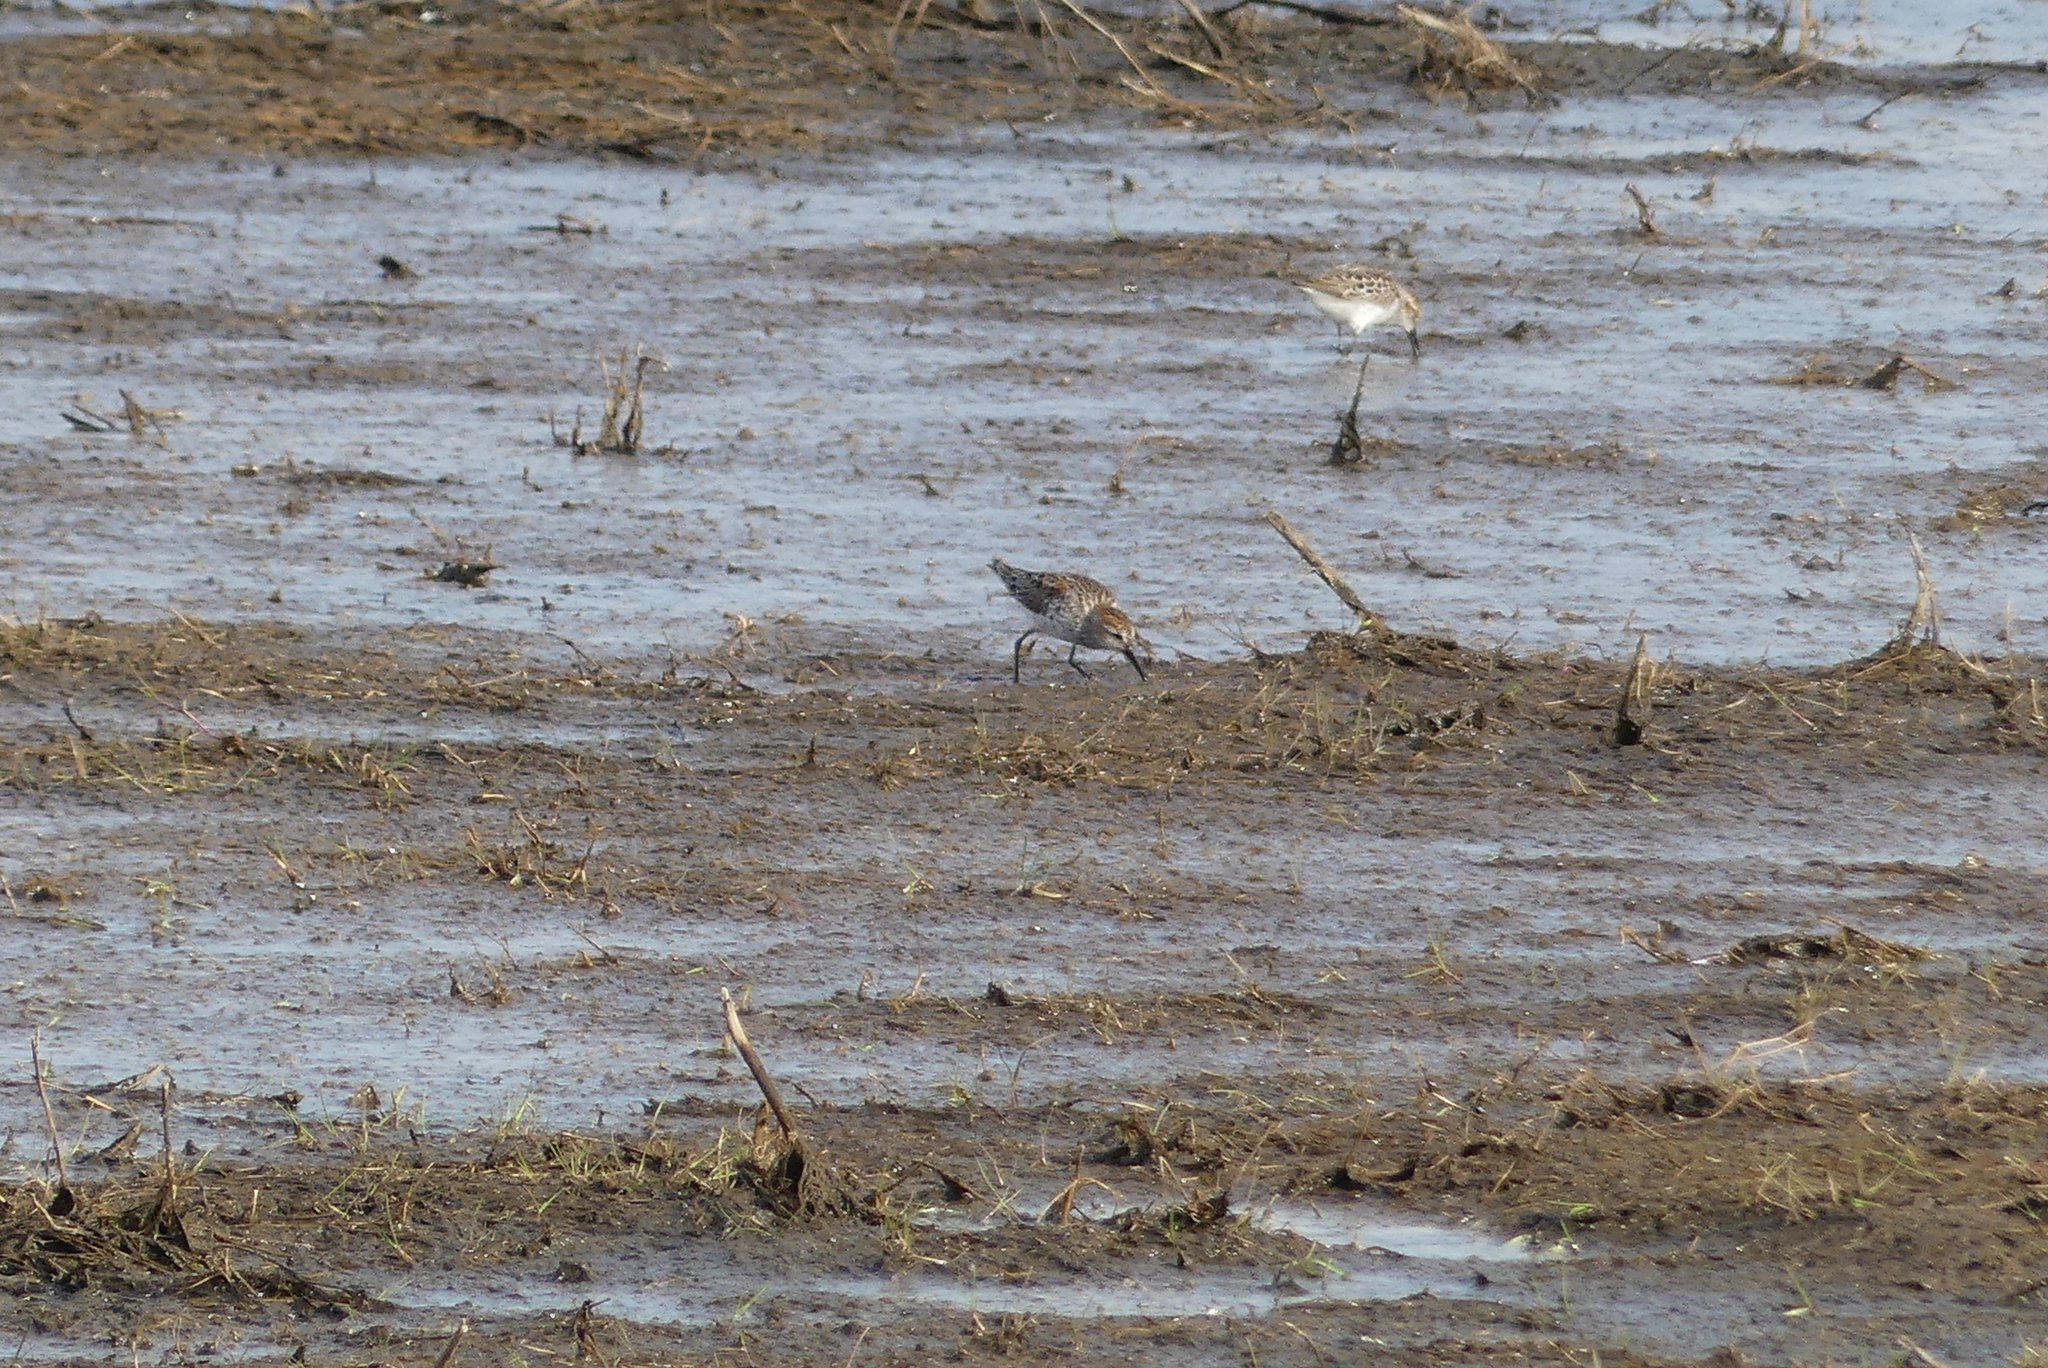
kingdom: Animalia
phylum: Chordata
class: Aves
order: Charadriiformes
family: Scolopacidae
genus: Calidris
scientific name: Calidris mauri
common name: Western sandpiper
